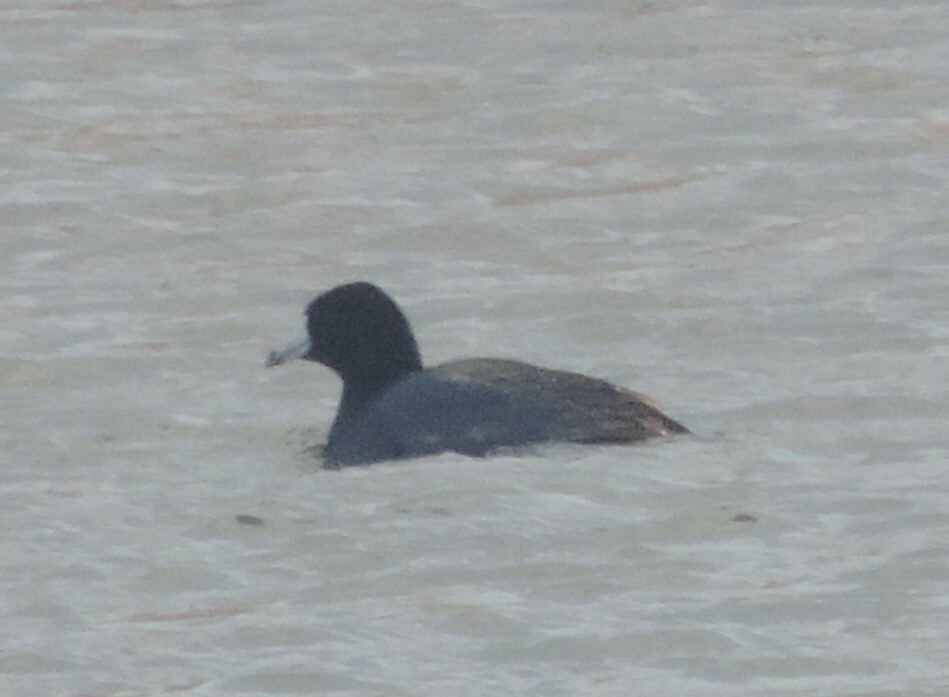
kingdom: Animalia
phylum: Chordata
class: Aves
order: Gruiformes
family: Rallidae
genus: Fulica
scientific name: Fulica americana
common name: American coot
